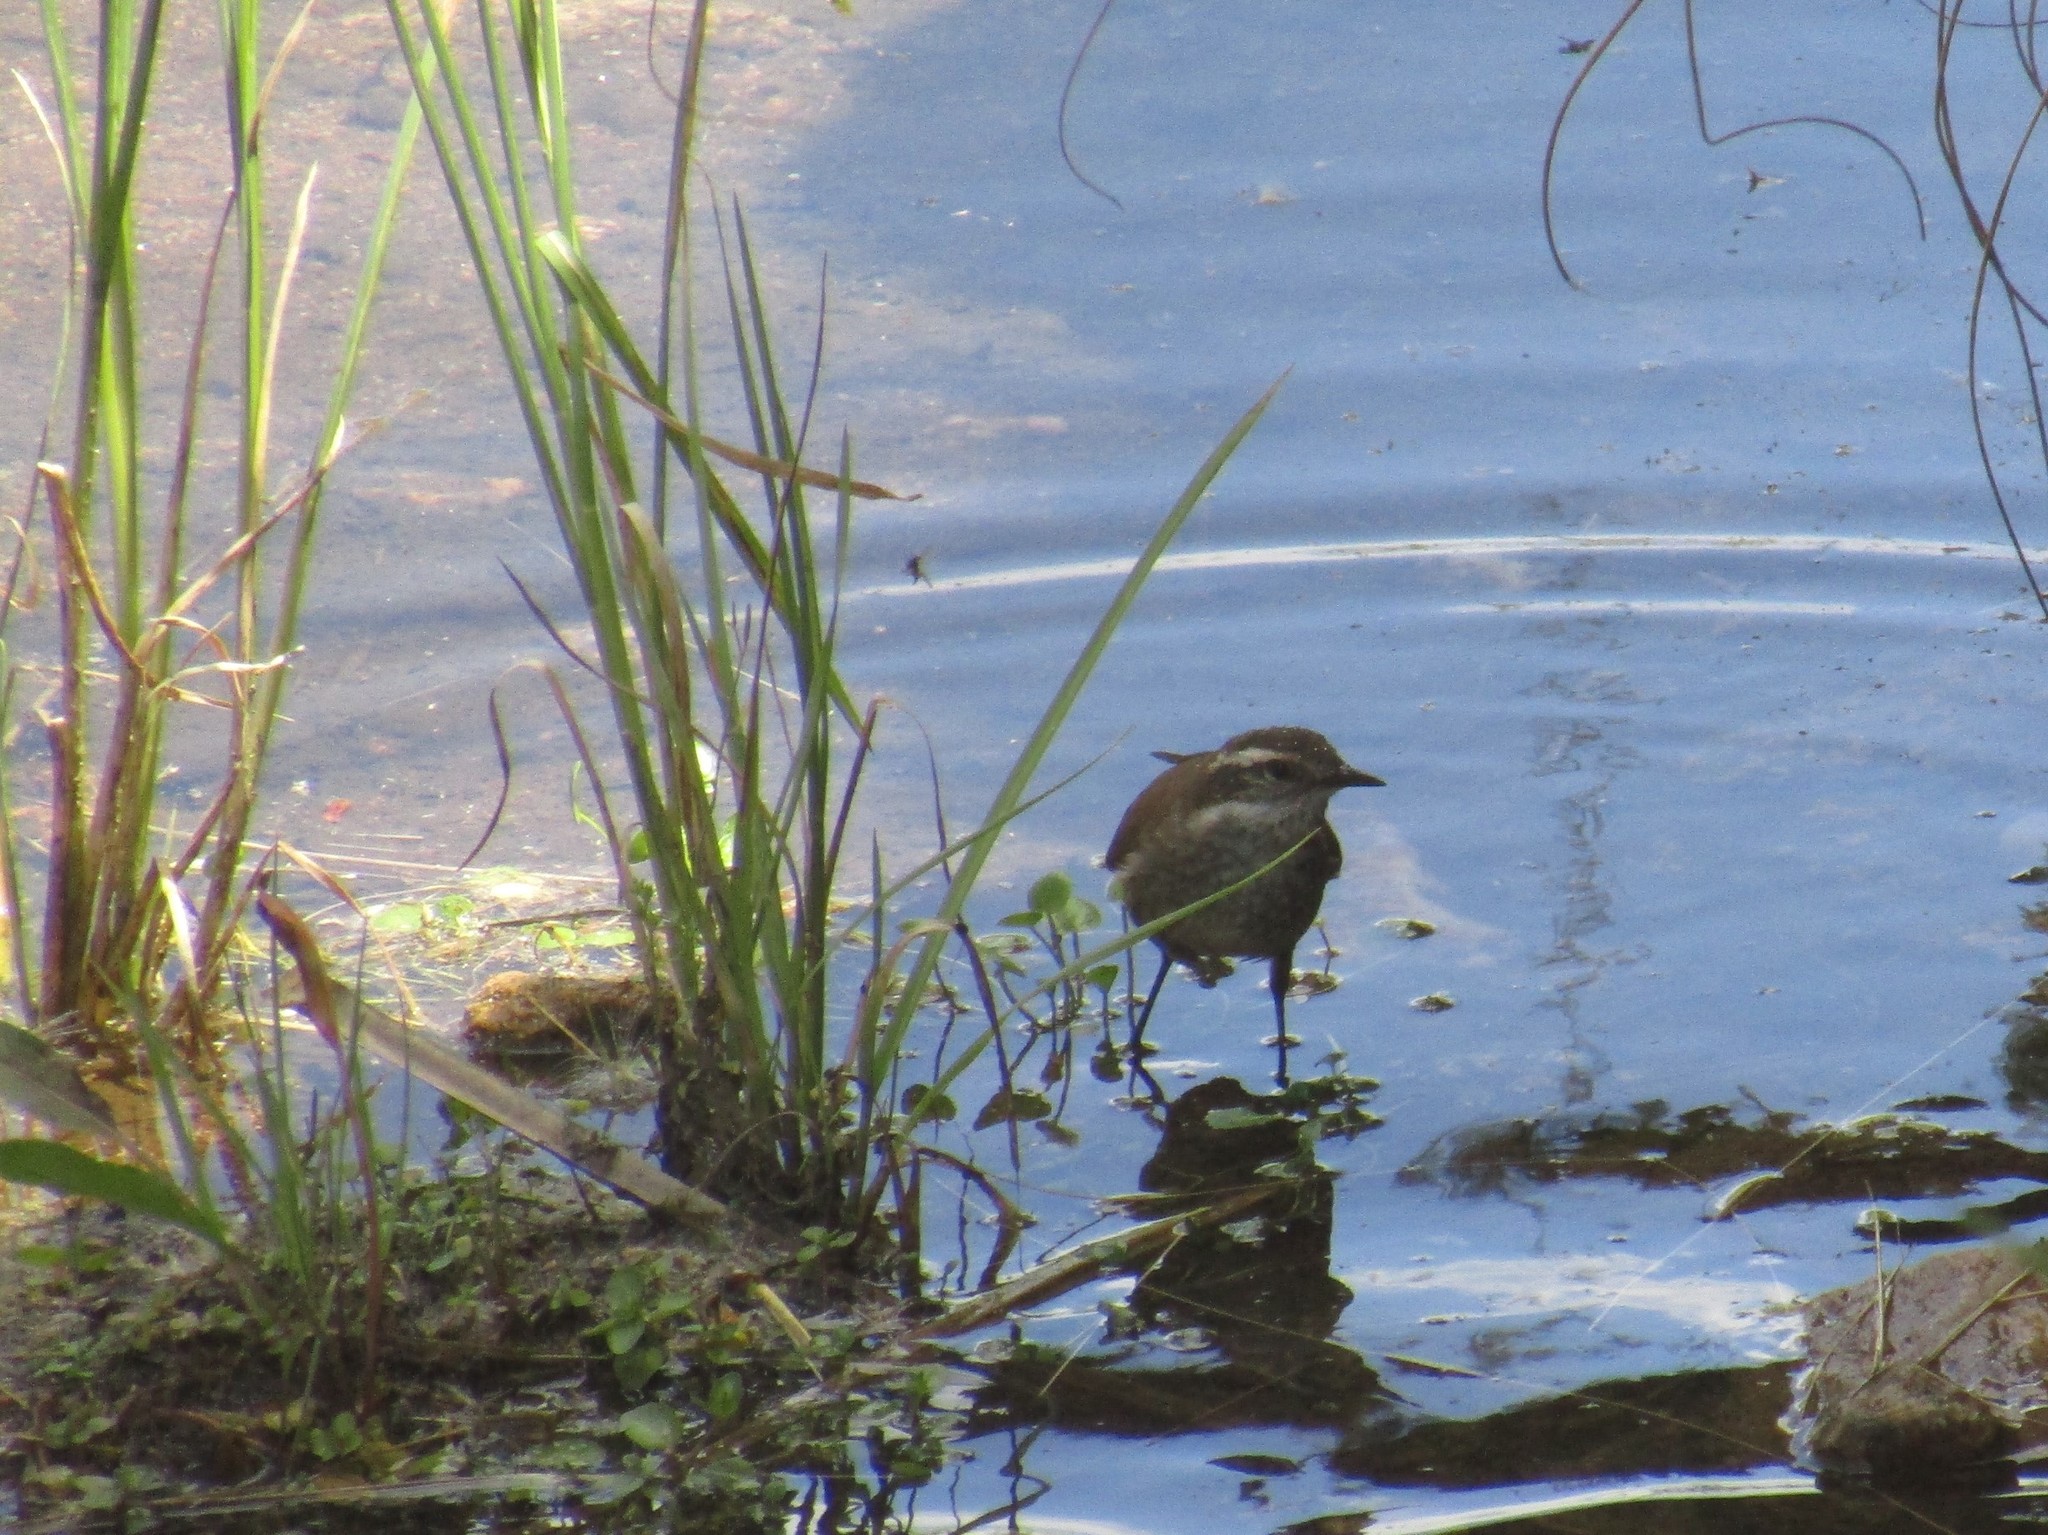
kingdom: Animalia
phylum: Chordata
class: Aves
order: Passeriformes
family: Furnariidae
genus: Cinclodes
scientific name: Cinclodes olrogi
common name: Olrog's cinclodes
